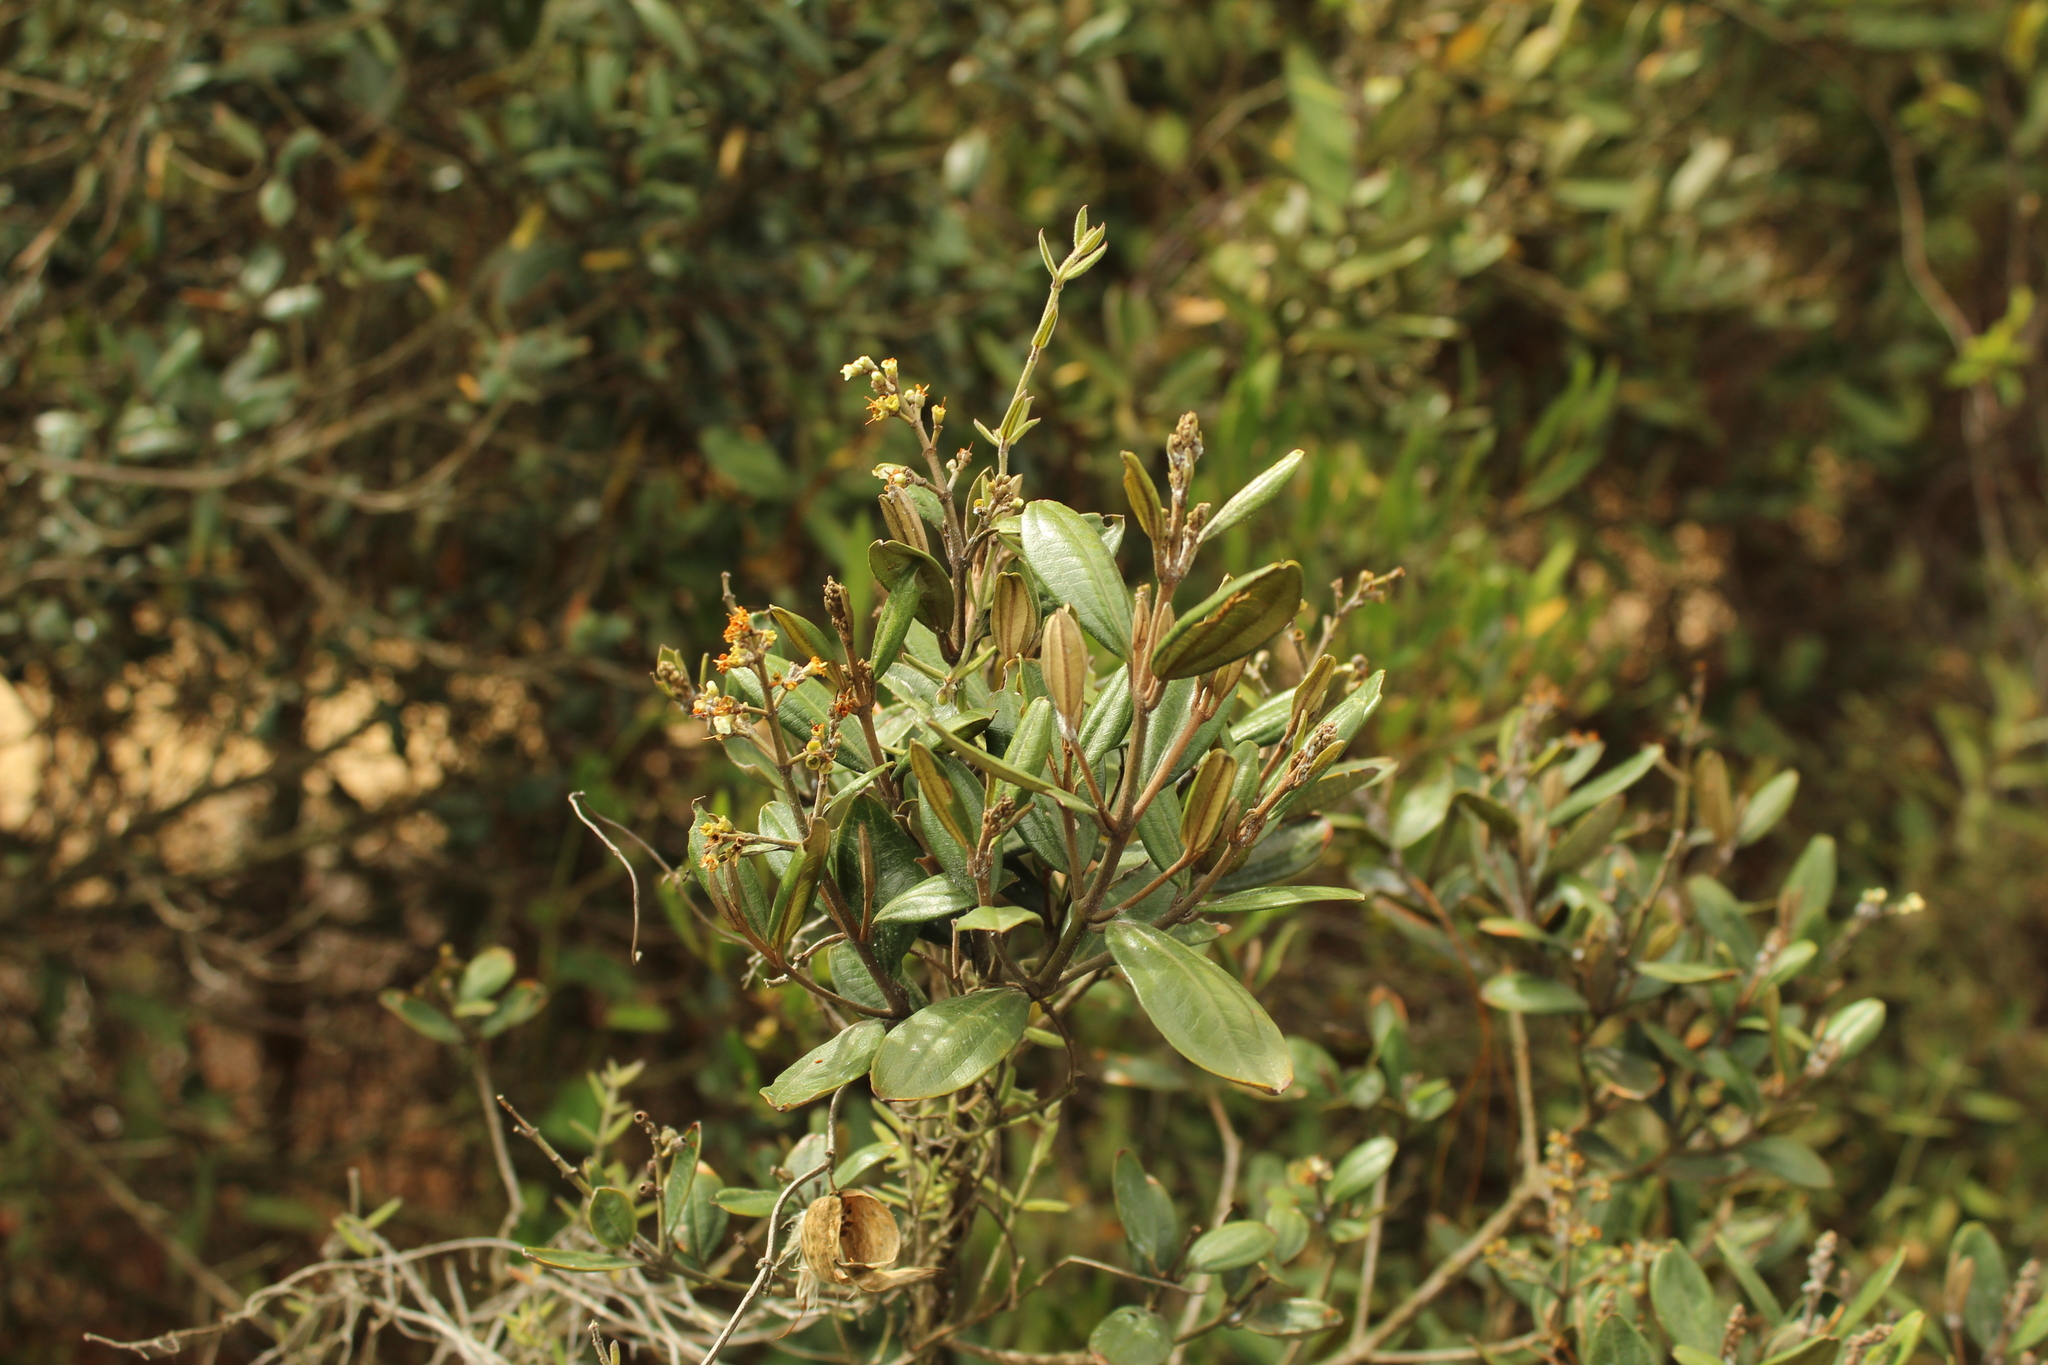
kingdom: Plantae
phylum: Tracheophyta
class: Magnoliopsida
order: Myrtales
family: Melastomataceae
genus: Miconia
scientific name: Miconia squamulosa
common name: Squamulose maya
